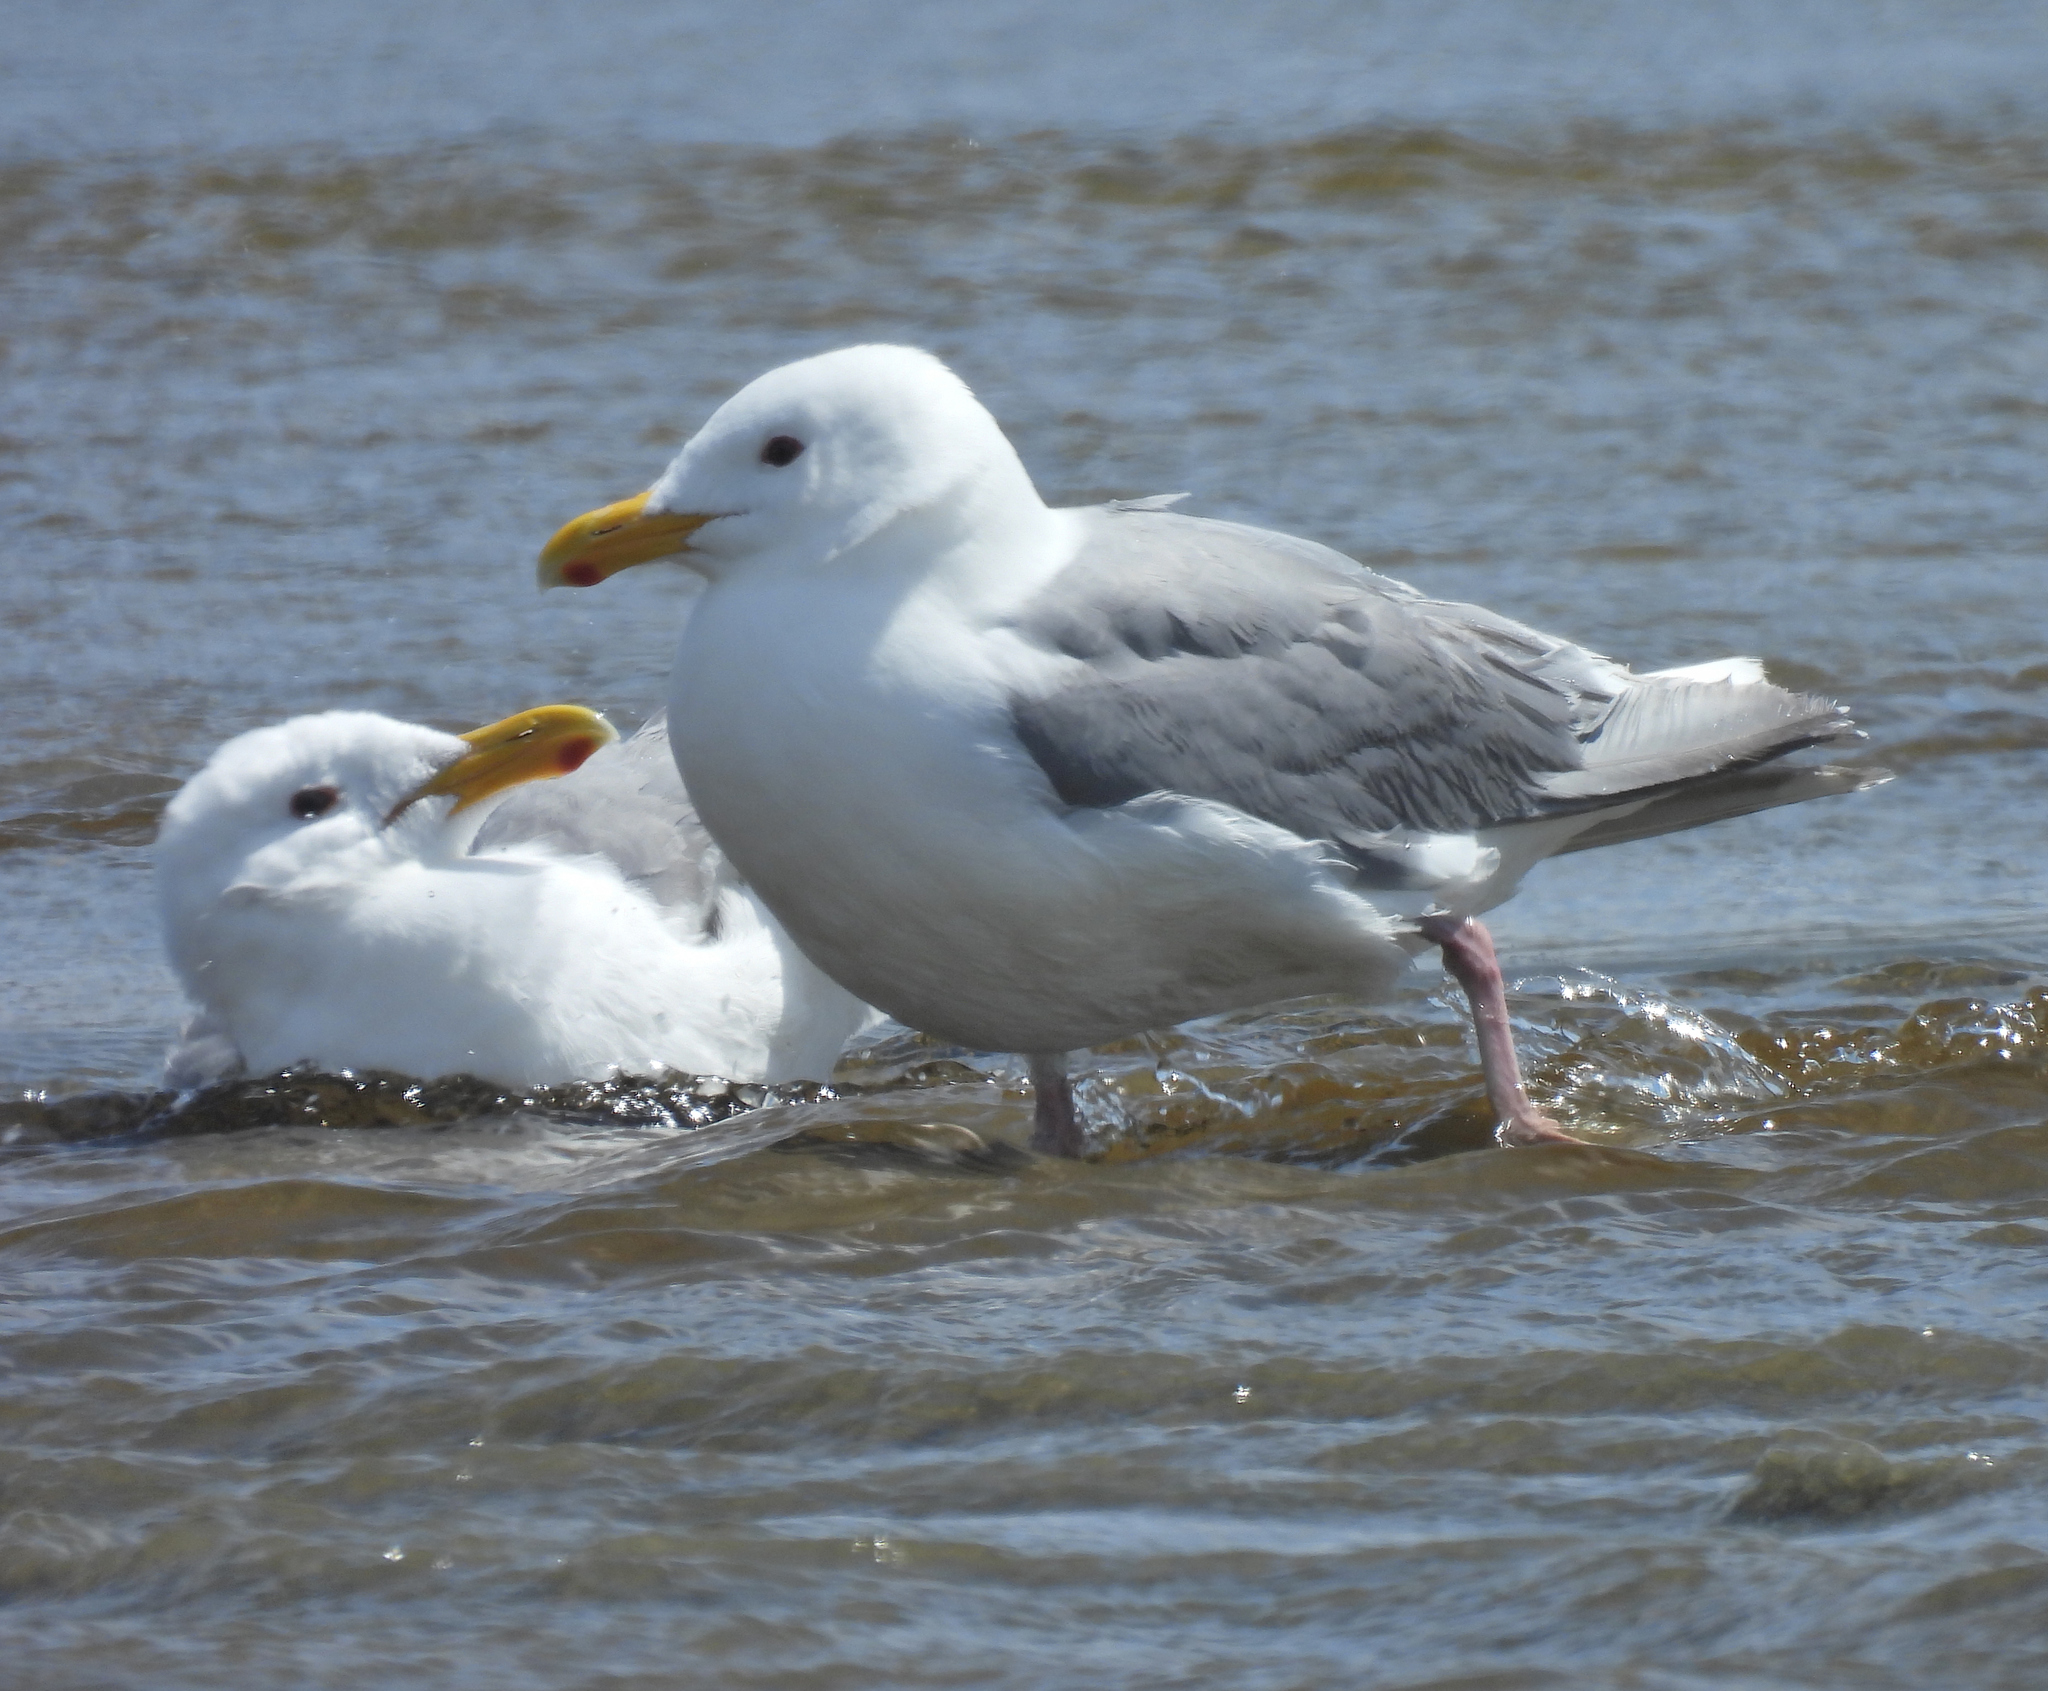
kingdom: Animalia
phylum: Chordata
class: Aves
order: Charadriiformes
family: Laridae
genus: Larus
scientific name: Larus glaucescens
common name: Glaucous-winged gull
